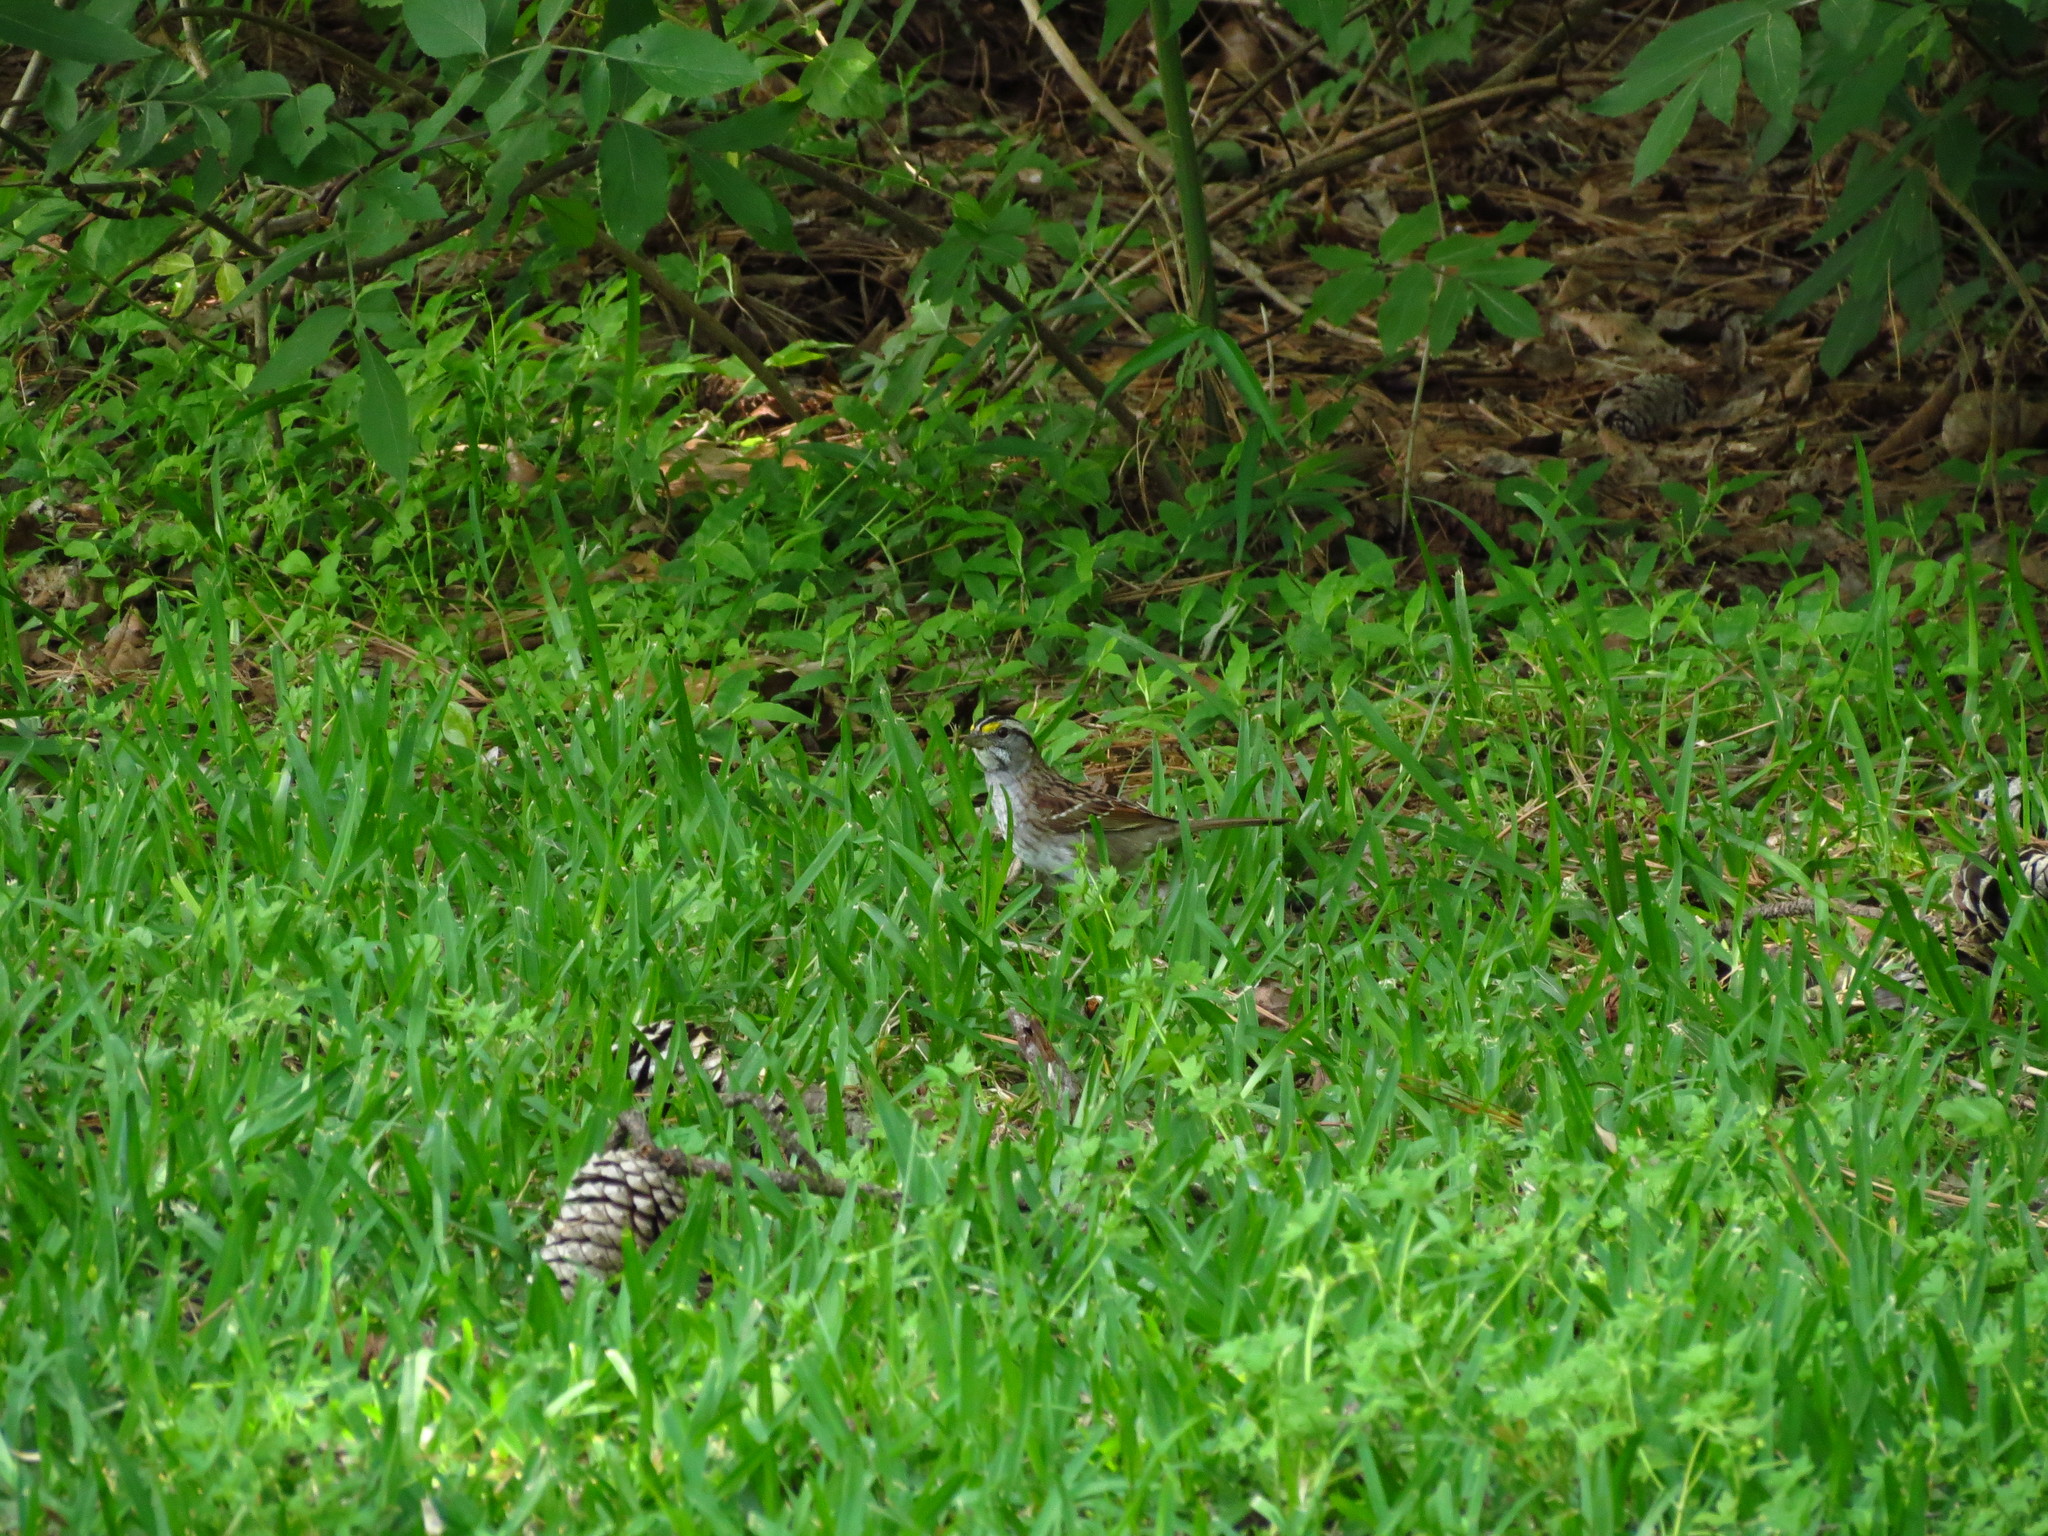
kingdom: Animalia
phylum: Chordata
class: Aves
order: Passeriformes
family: Passerellidae
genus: Zonotrichia
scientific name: Zonotrichia albicollis
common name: White-throated sparrow
